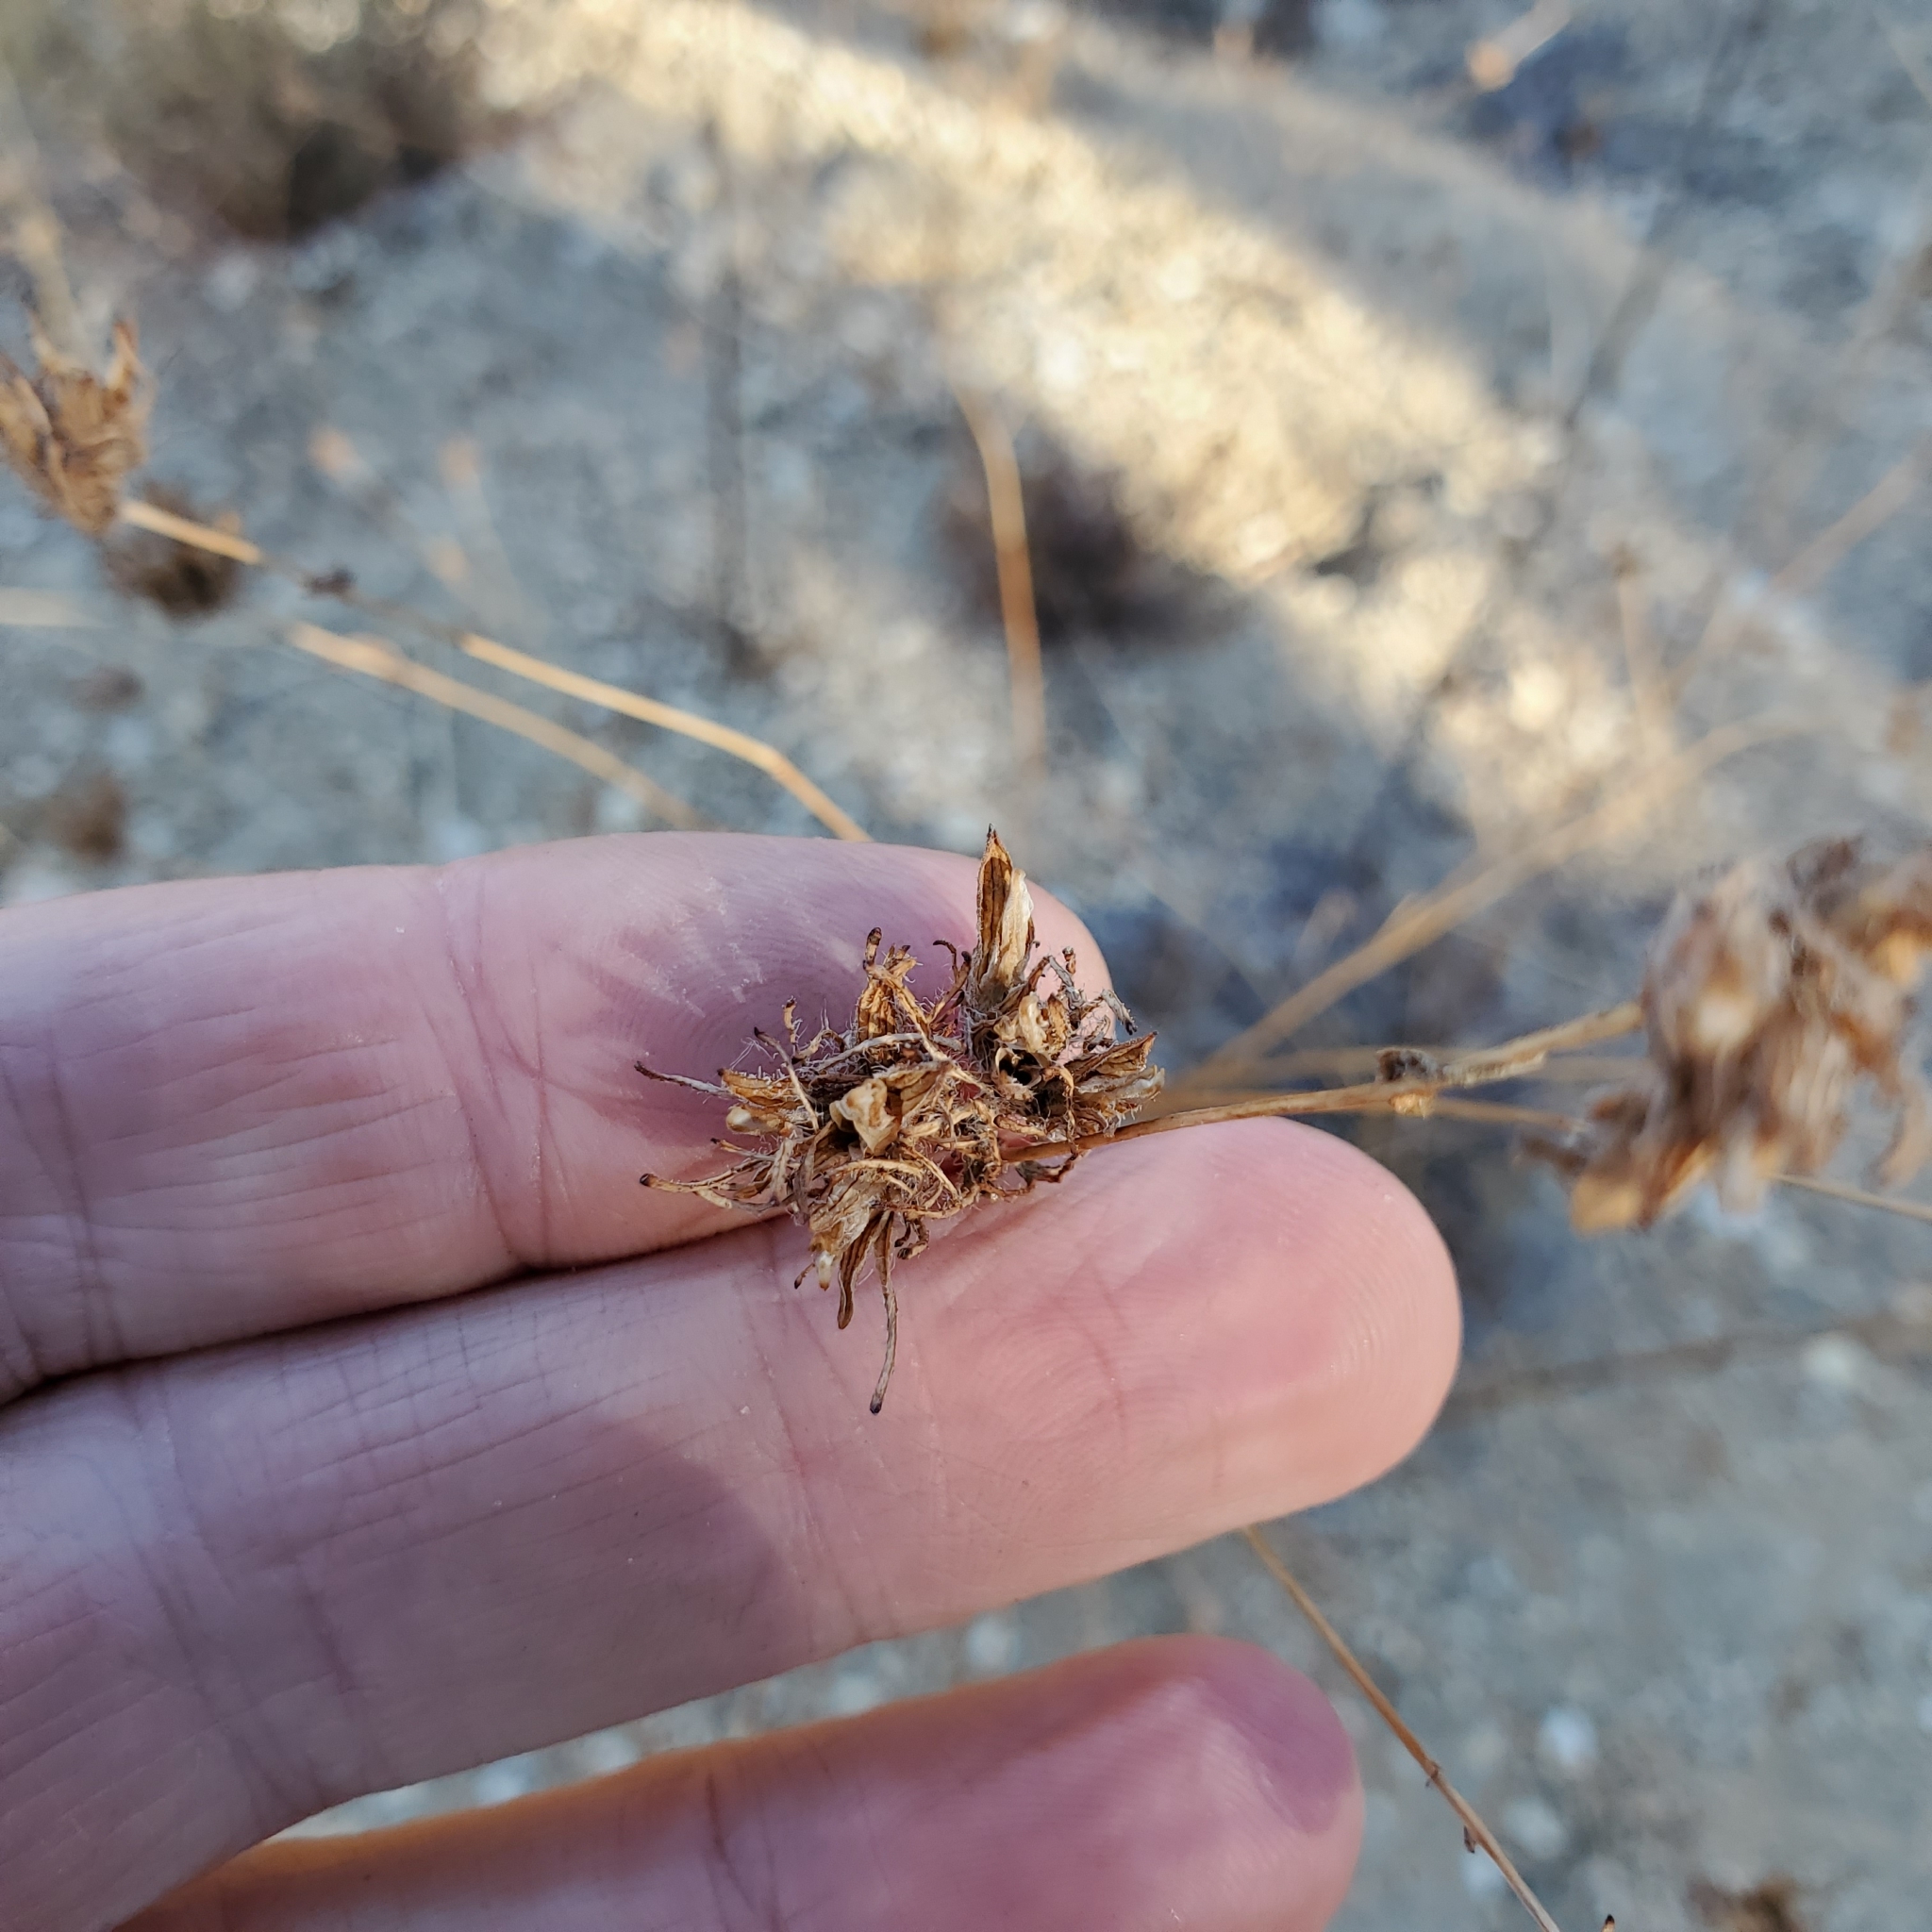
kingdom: Plantae
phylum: Tracheophyta
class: Magnoliopsida
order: Lamiales
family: Orobanchaceae
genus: Cordylanthus
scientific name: Cordylanthus rigidus
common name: Stiff-branch bird's-beak
